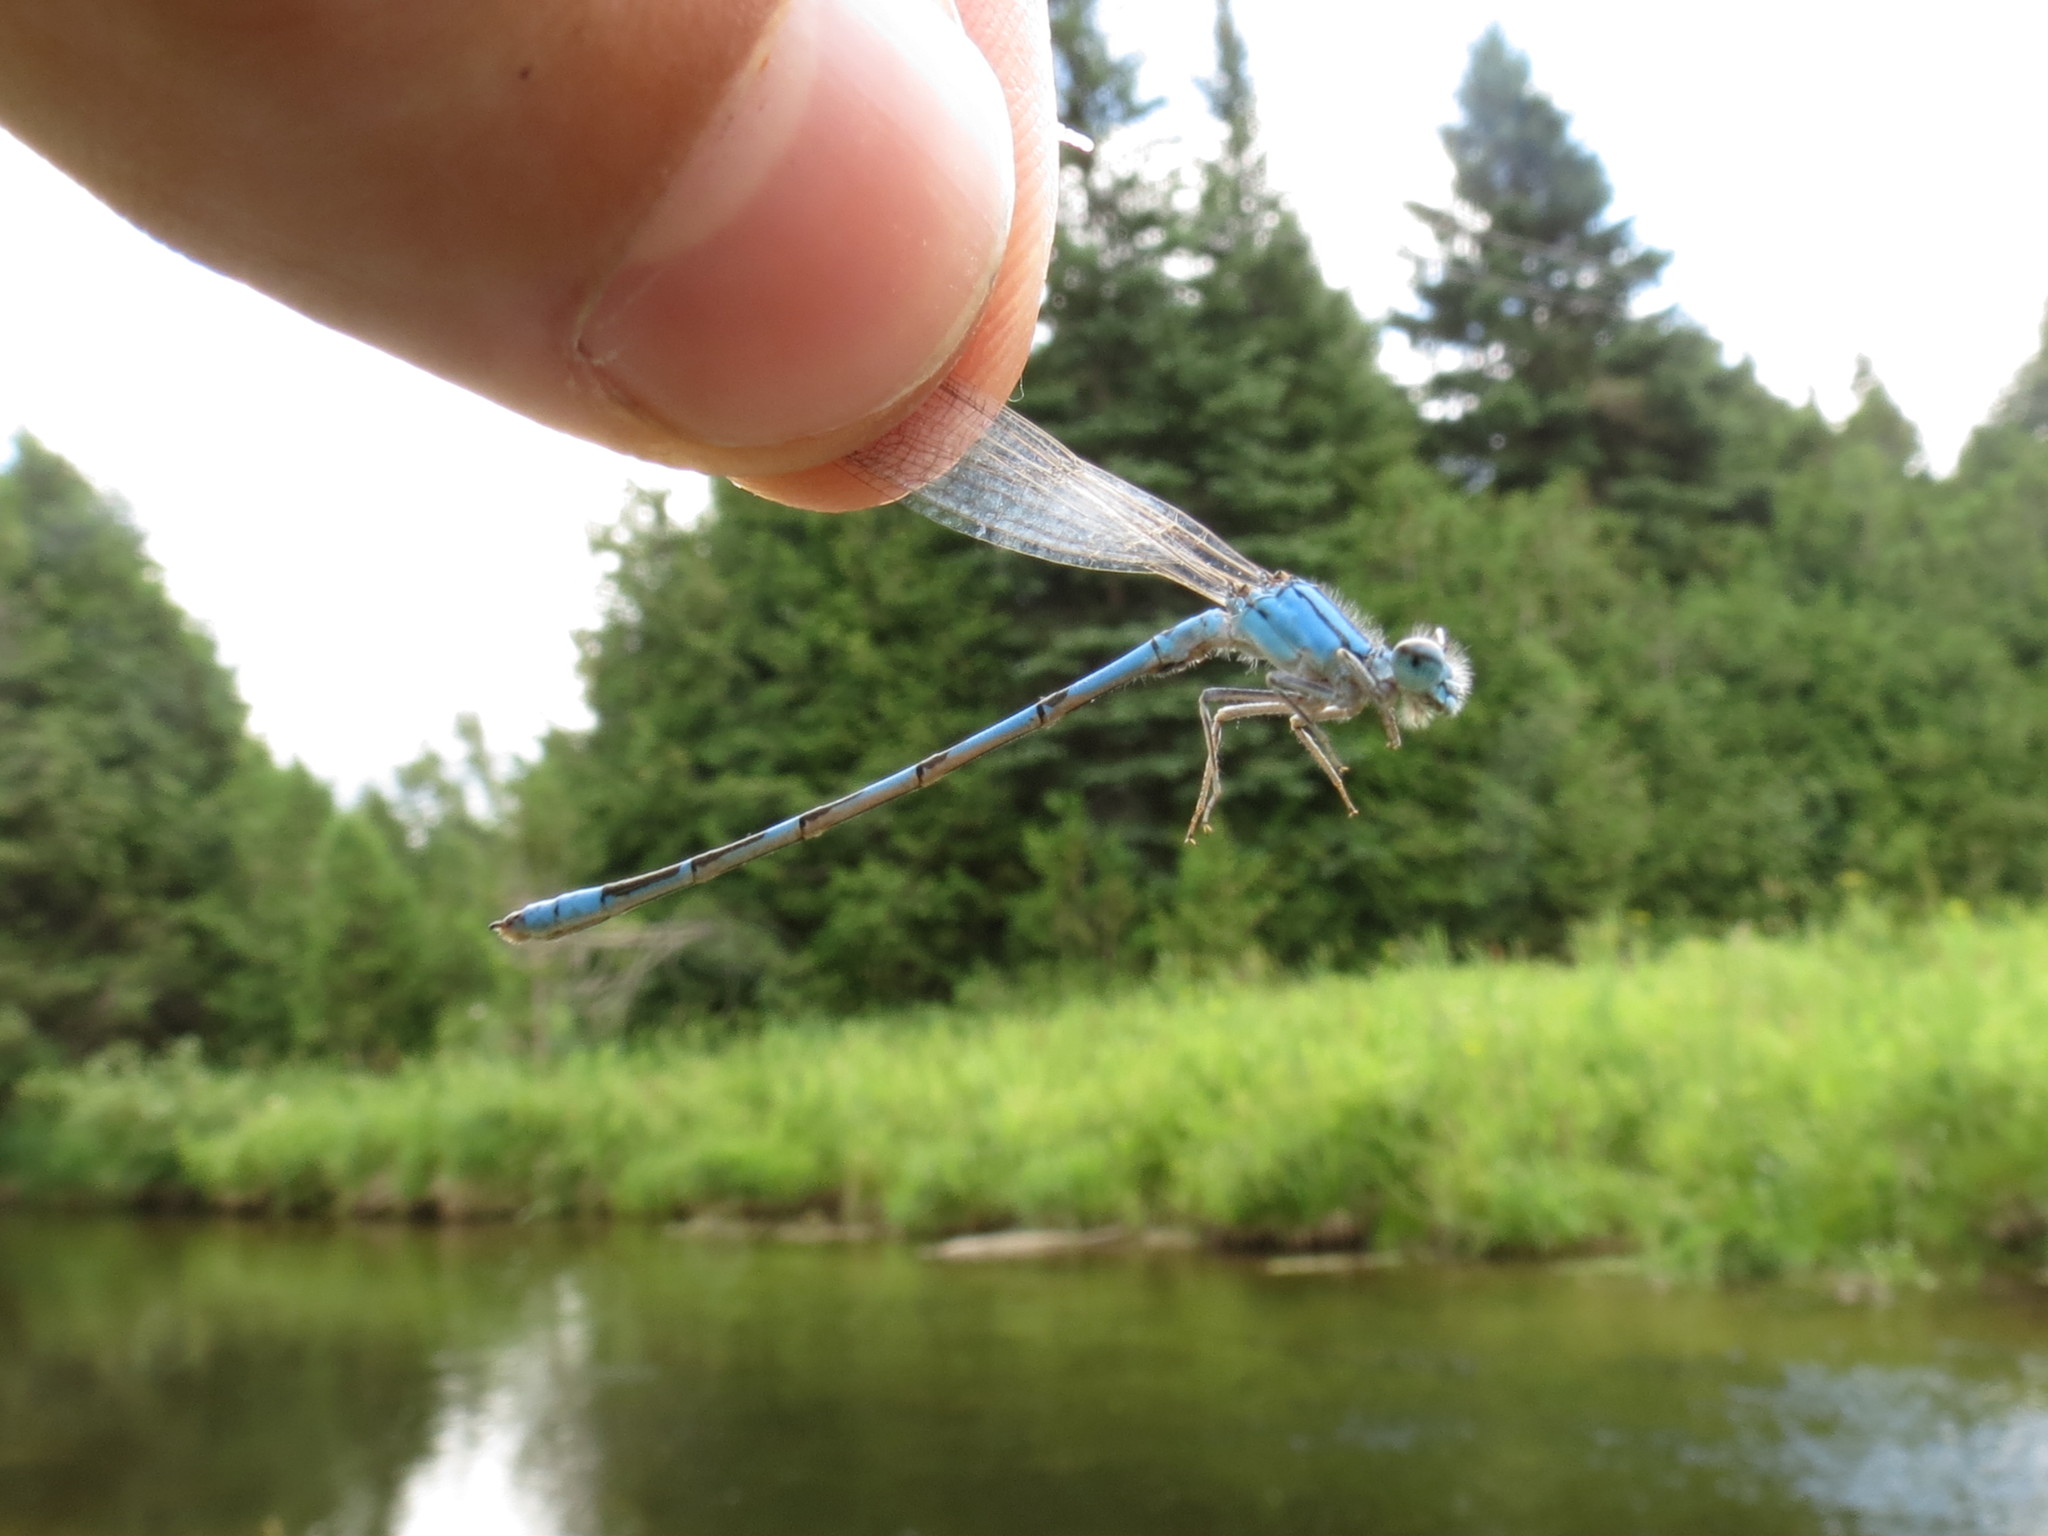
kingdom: Animalia
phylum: Arthropoda
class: Insecta
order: Odonata
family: Coenagrionidae
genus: Enallagma
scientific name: Enallagma anna
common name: River bluet
